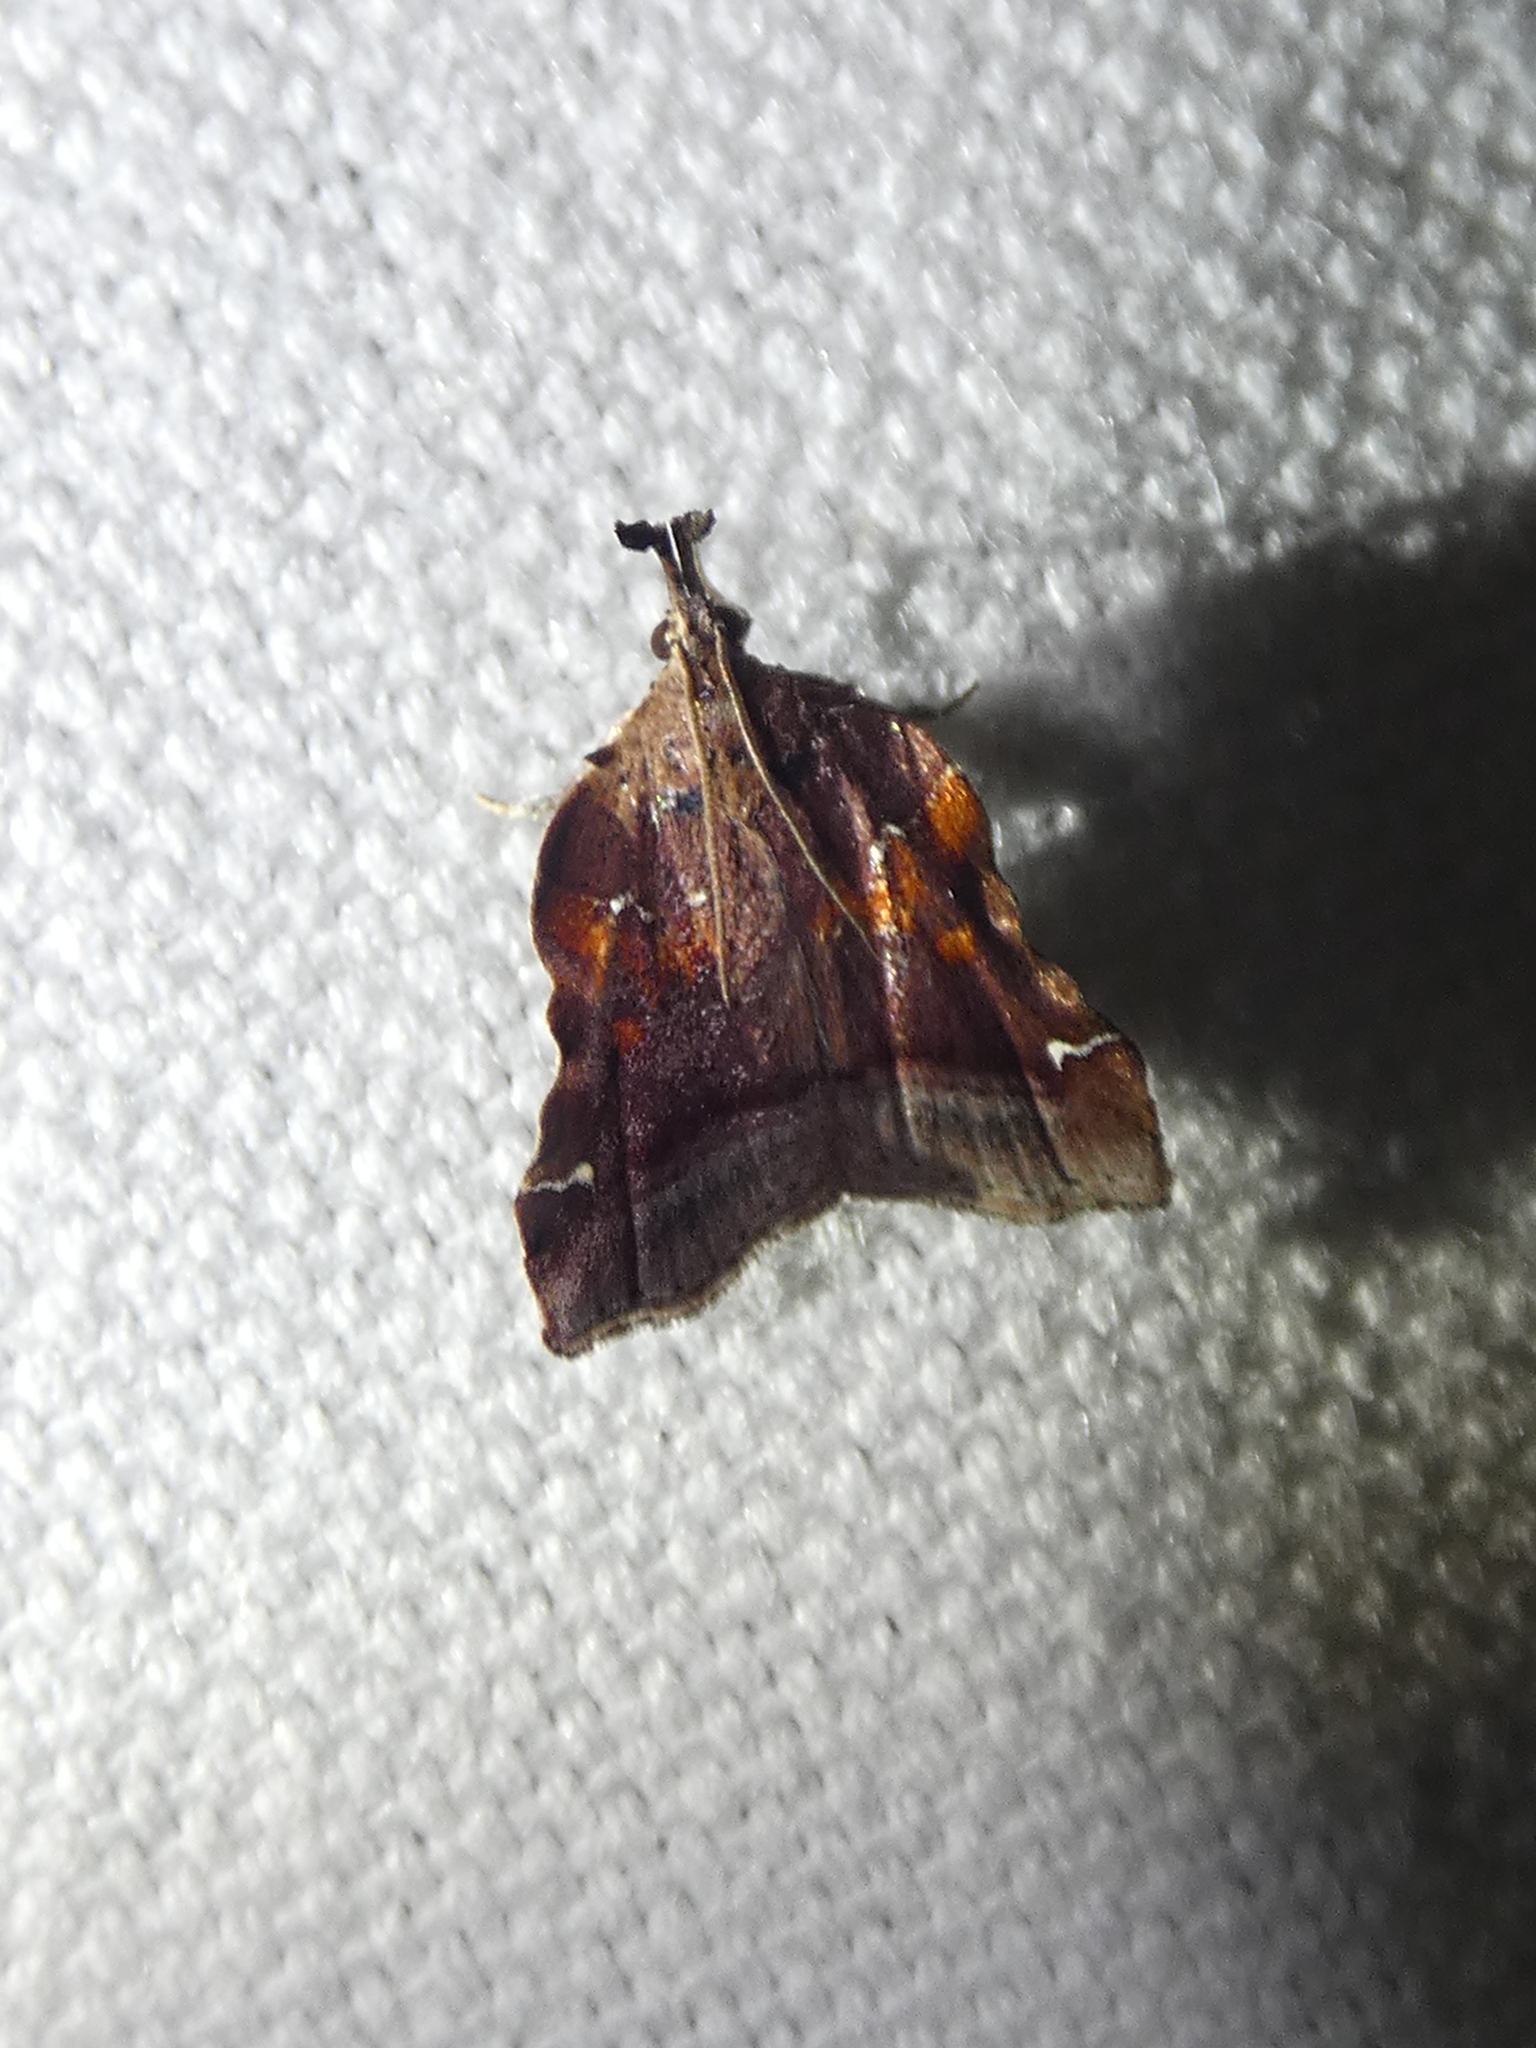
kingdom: Animalia
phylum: Arthropoda
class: Insecta
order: Lepidoptera
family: Pyralidae
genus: Clydonopteron
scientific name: Clydonopteron sacculana
